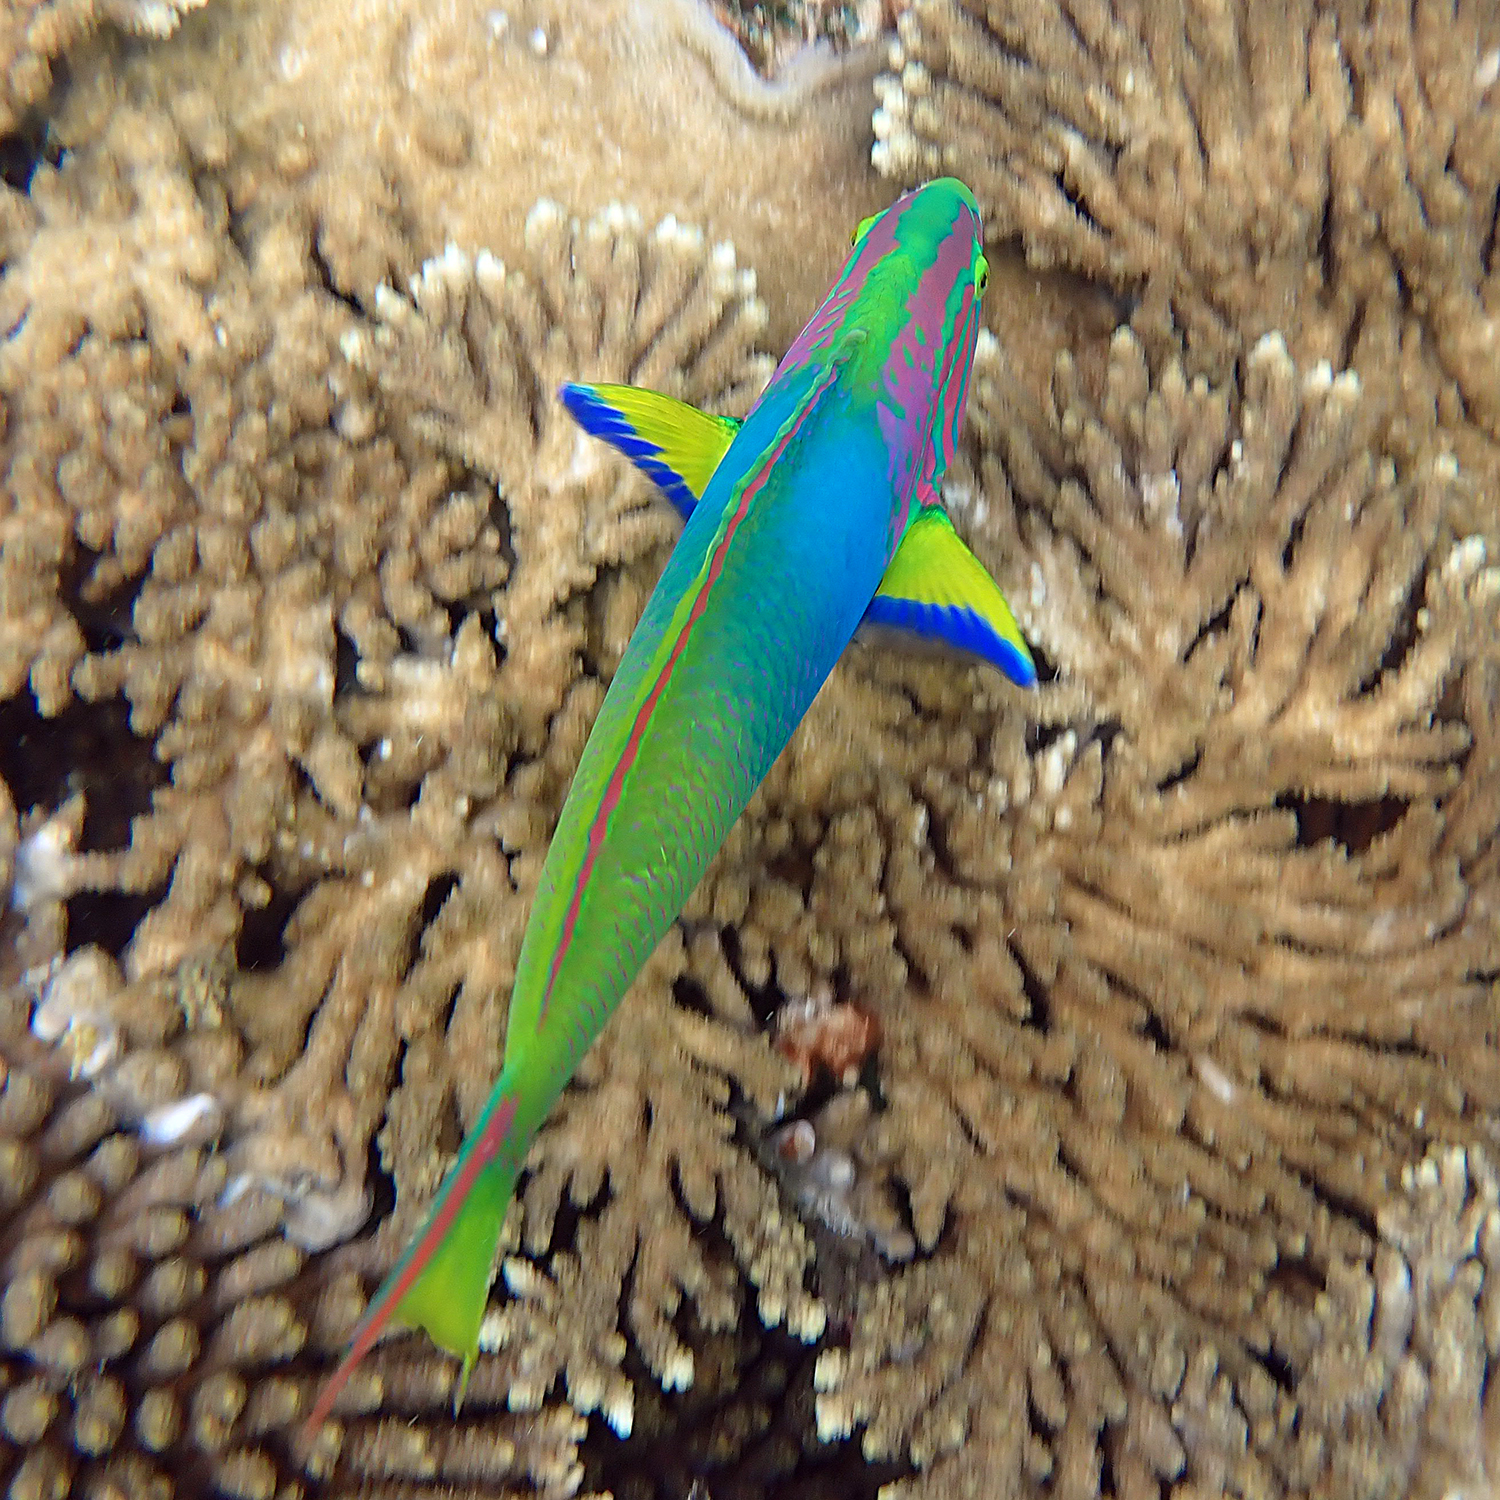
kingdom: Animalia
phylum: Chordata
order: Perciformes
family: Labridae
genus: Thalassoma
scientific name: Thalassoma lutescens
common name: Green moon wrasse
